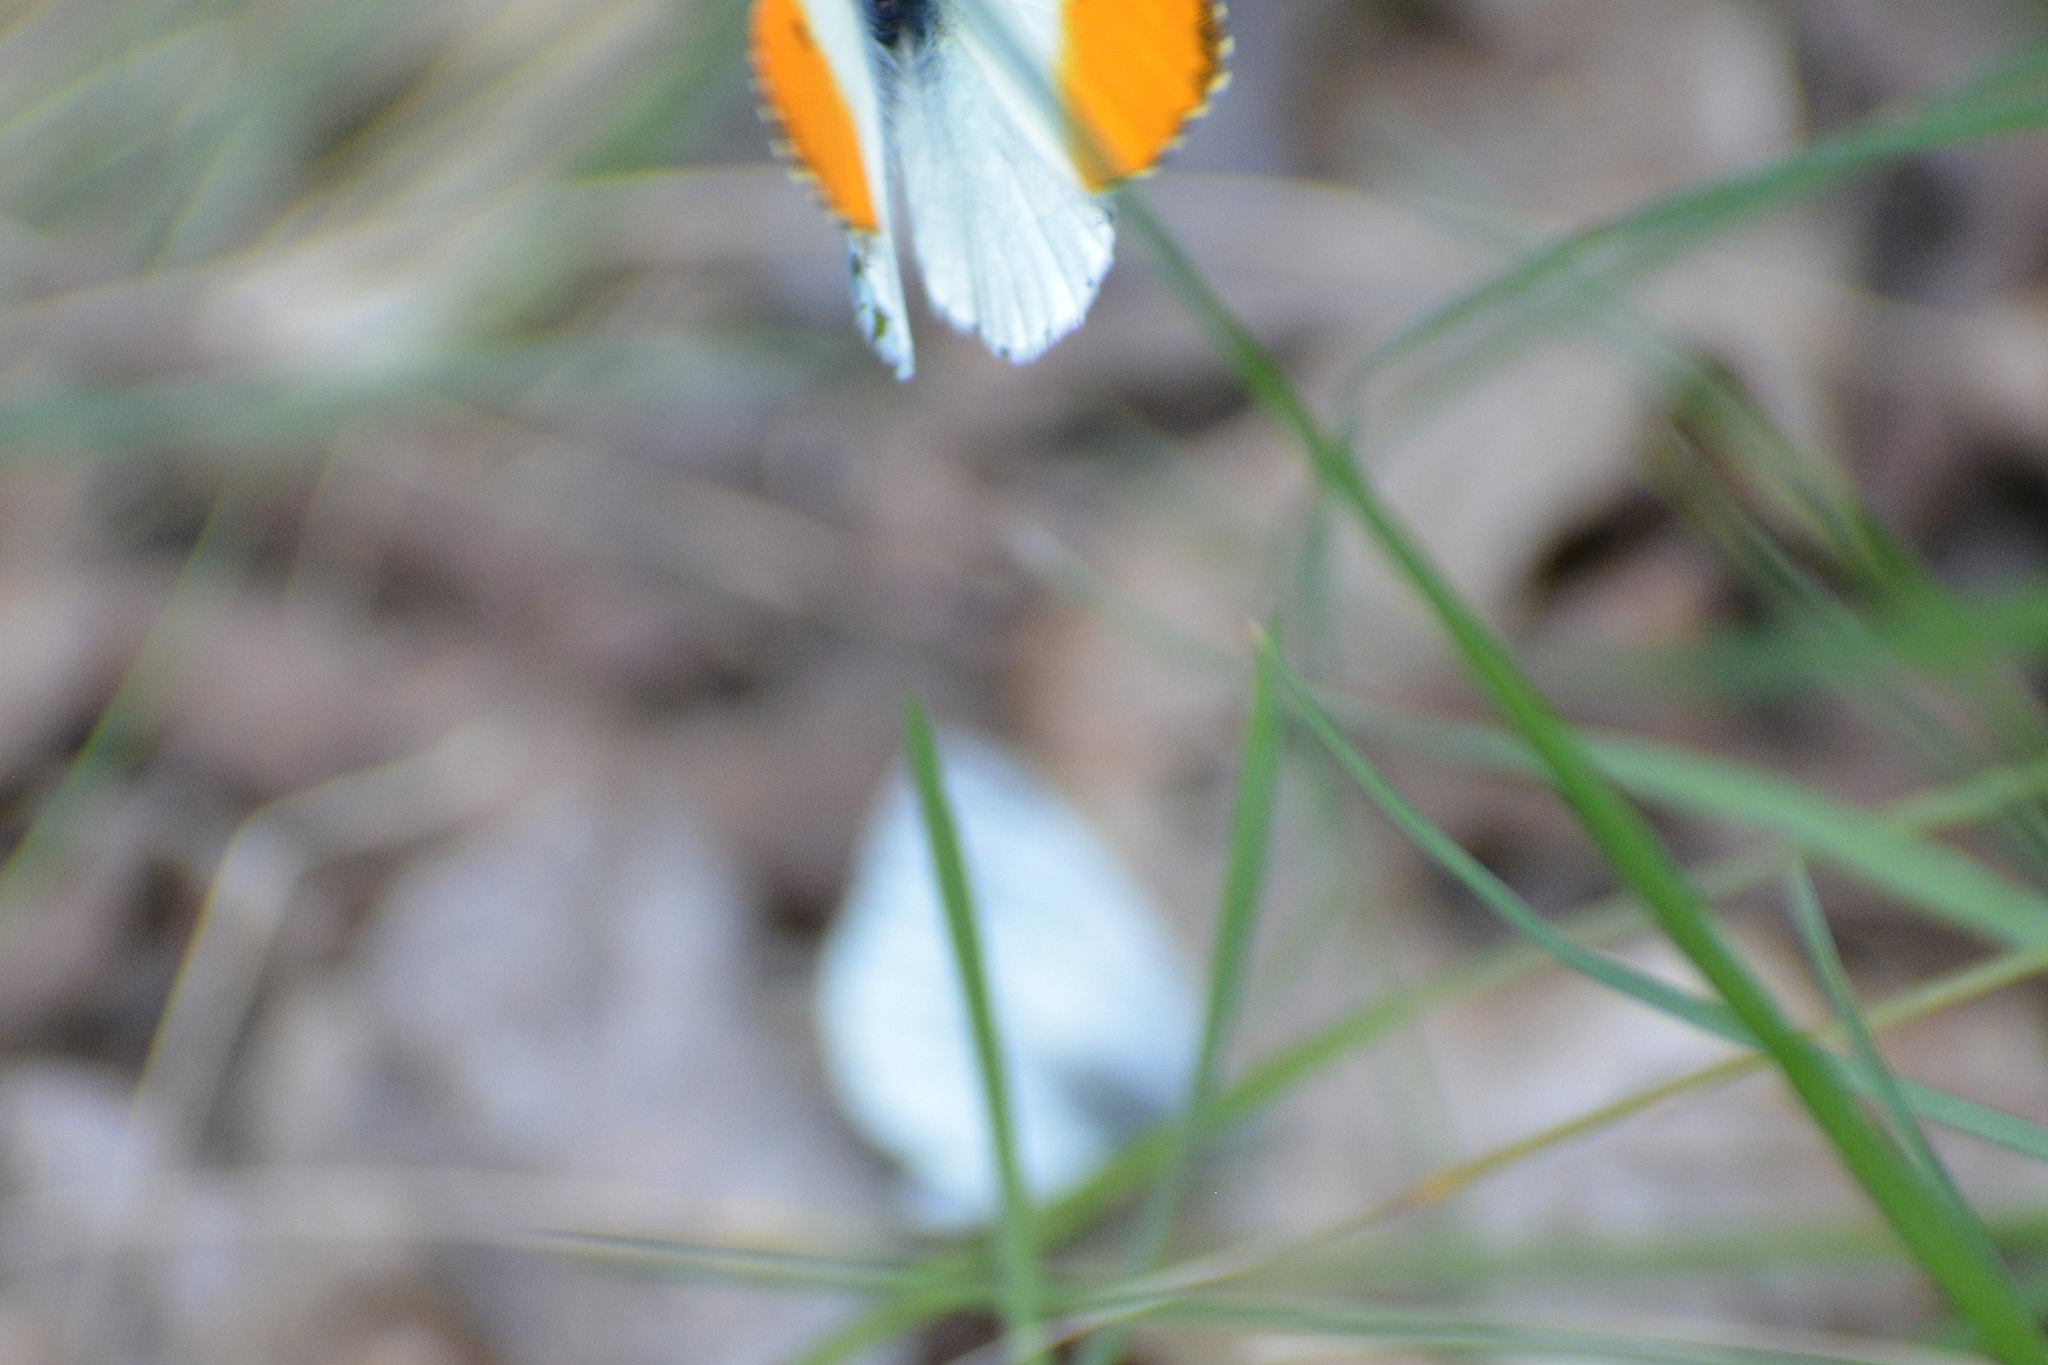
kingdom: Animalia
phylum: Arthropoda
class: Insecta
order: Lepidoptera
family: Pieridae
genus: Anthocharis
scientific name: Anthocharis cardamines
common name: Orange-tip
